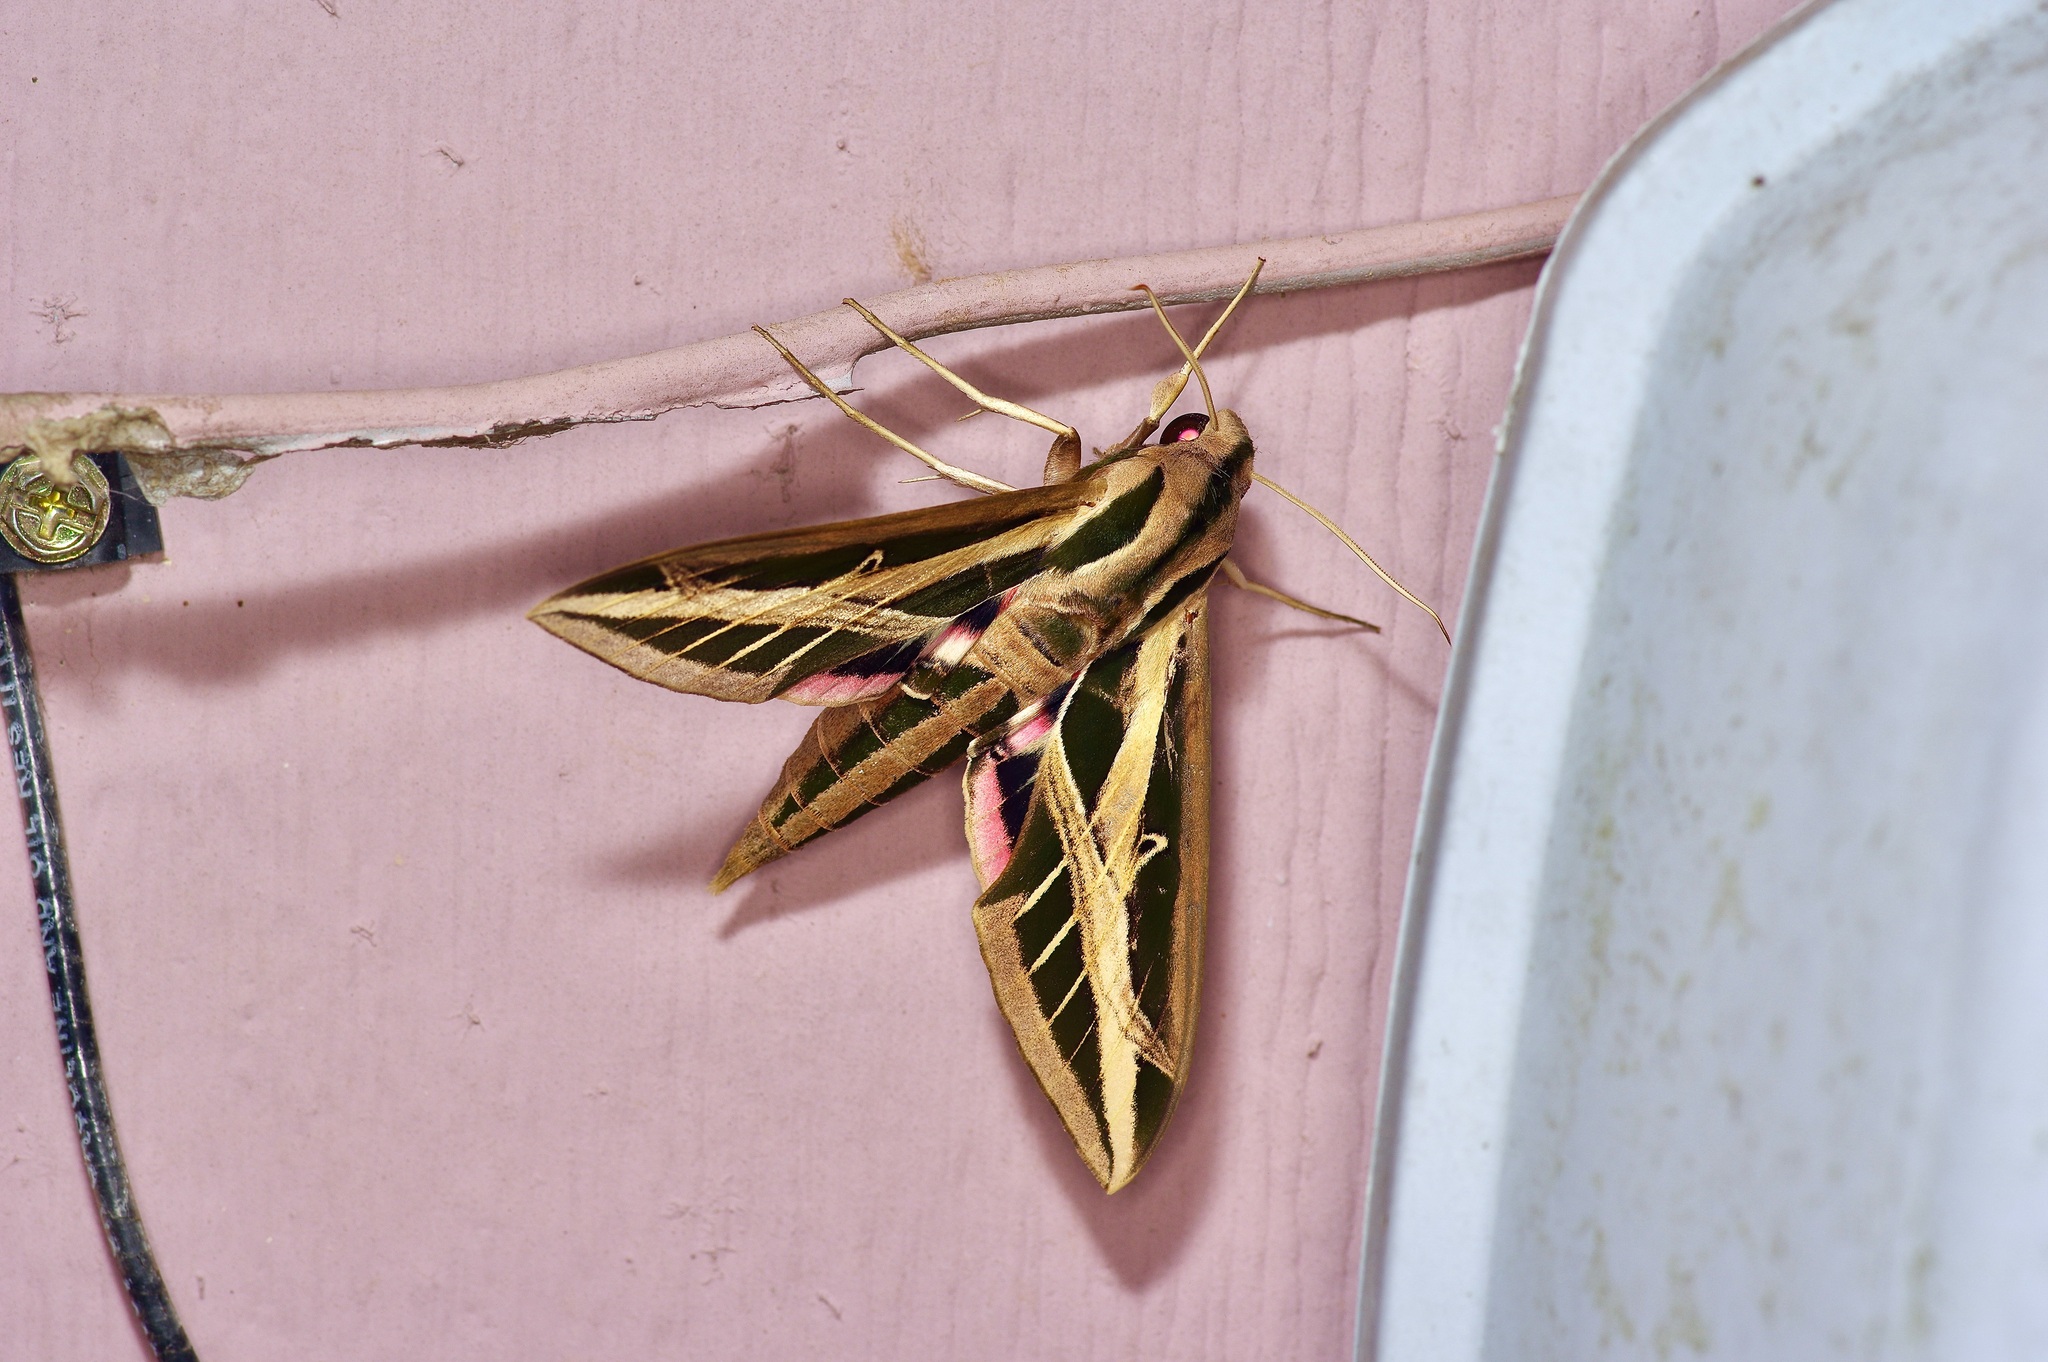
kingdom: Animalia
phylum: Arthropoda
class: Insecta
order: Lepidoptera
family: Sphingidae
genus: Eumorpha
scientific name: Eumorpha fasciatus
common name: Banded sphinx
